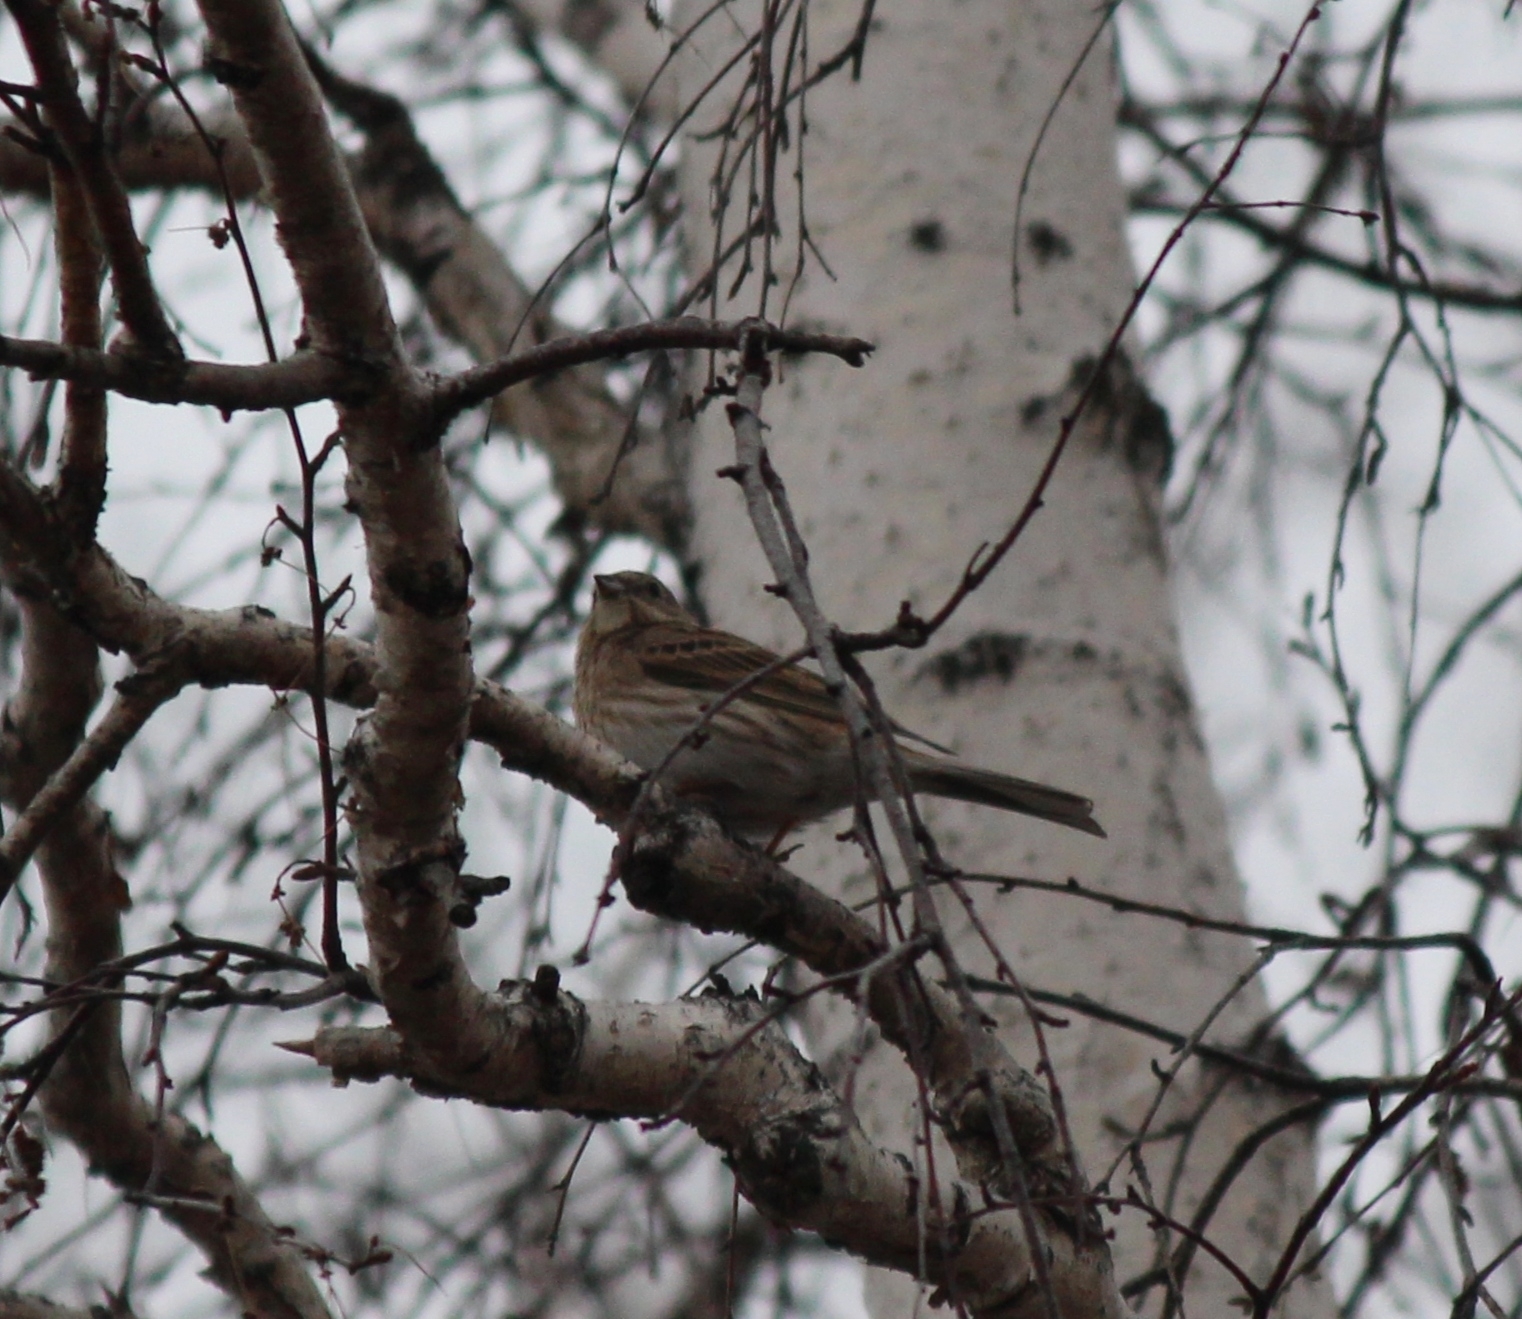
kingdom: Animalia
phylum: Chordata
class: Aves
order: Passeriformes
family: Emberizidae
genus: Emberiza
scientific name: Emberiza leucocephalos
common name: Pine bunting
